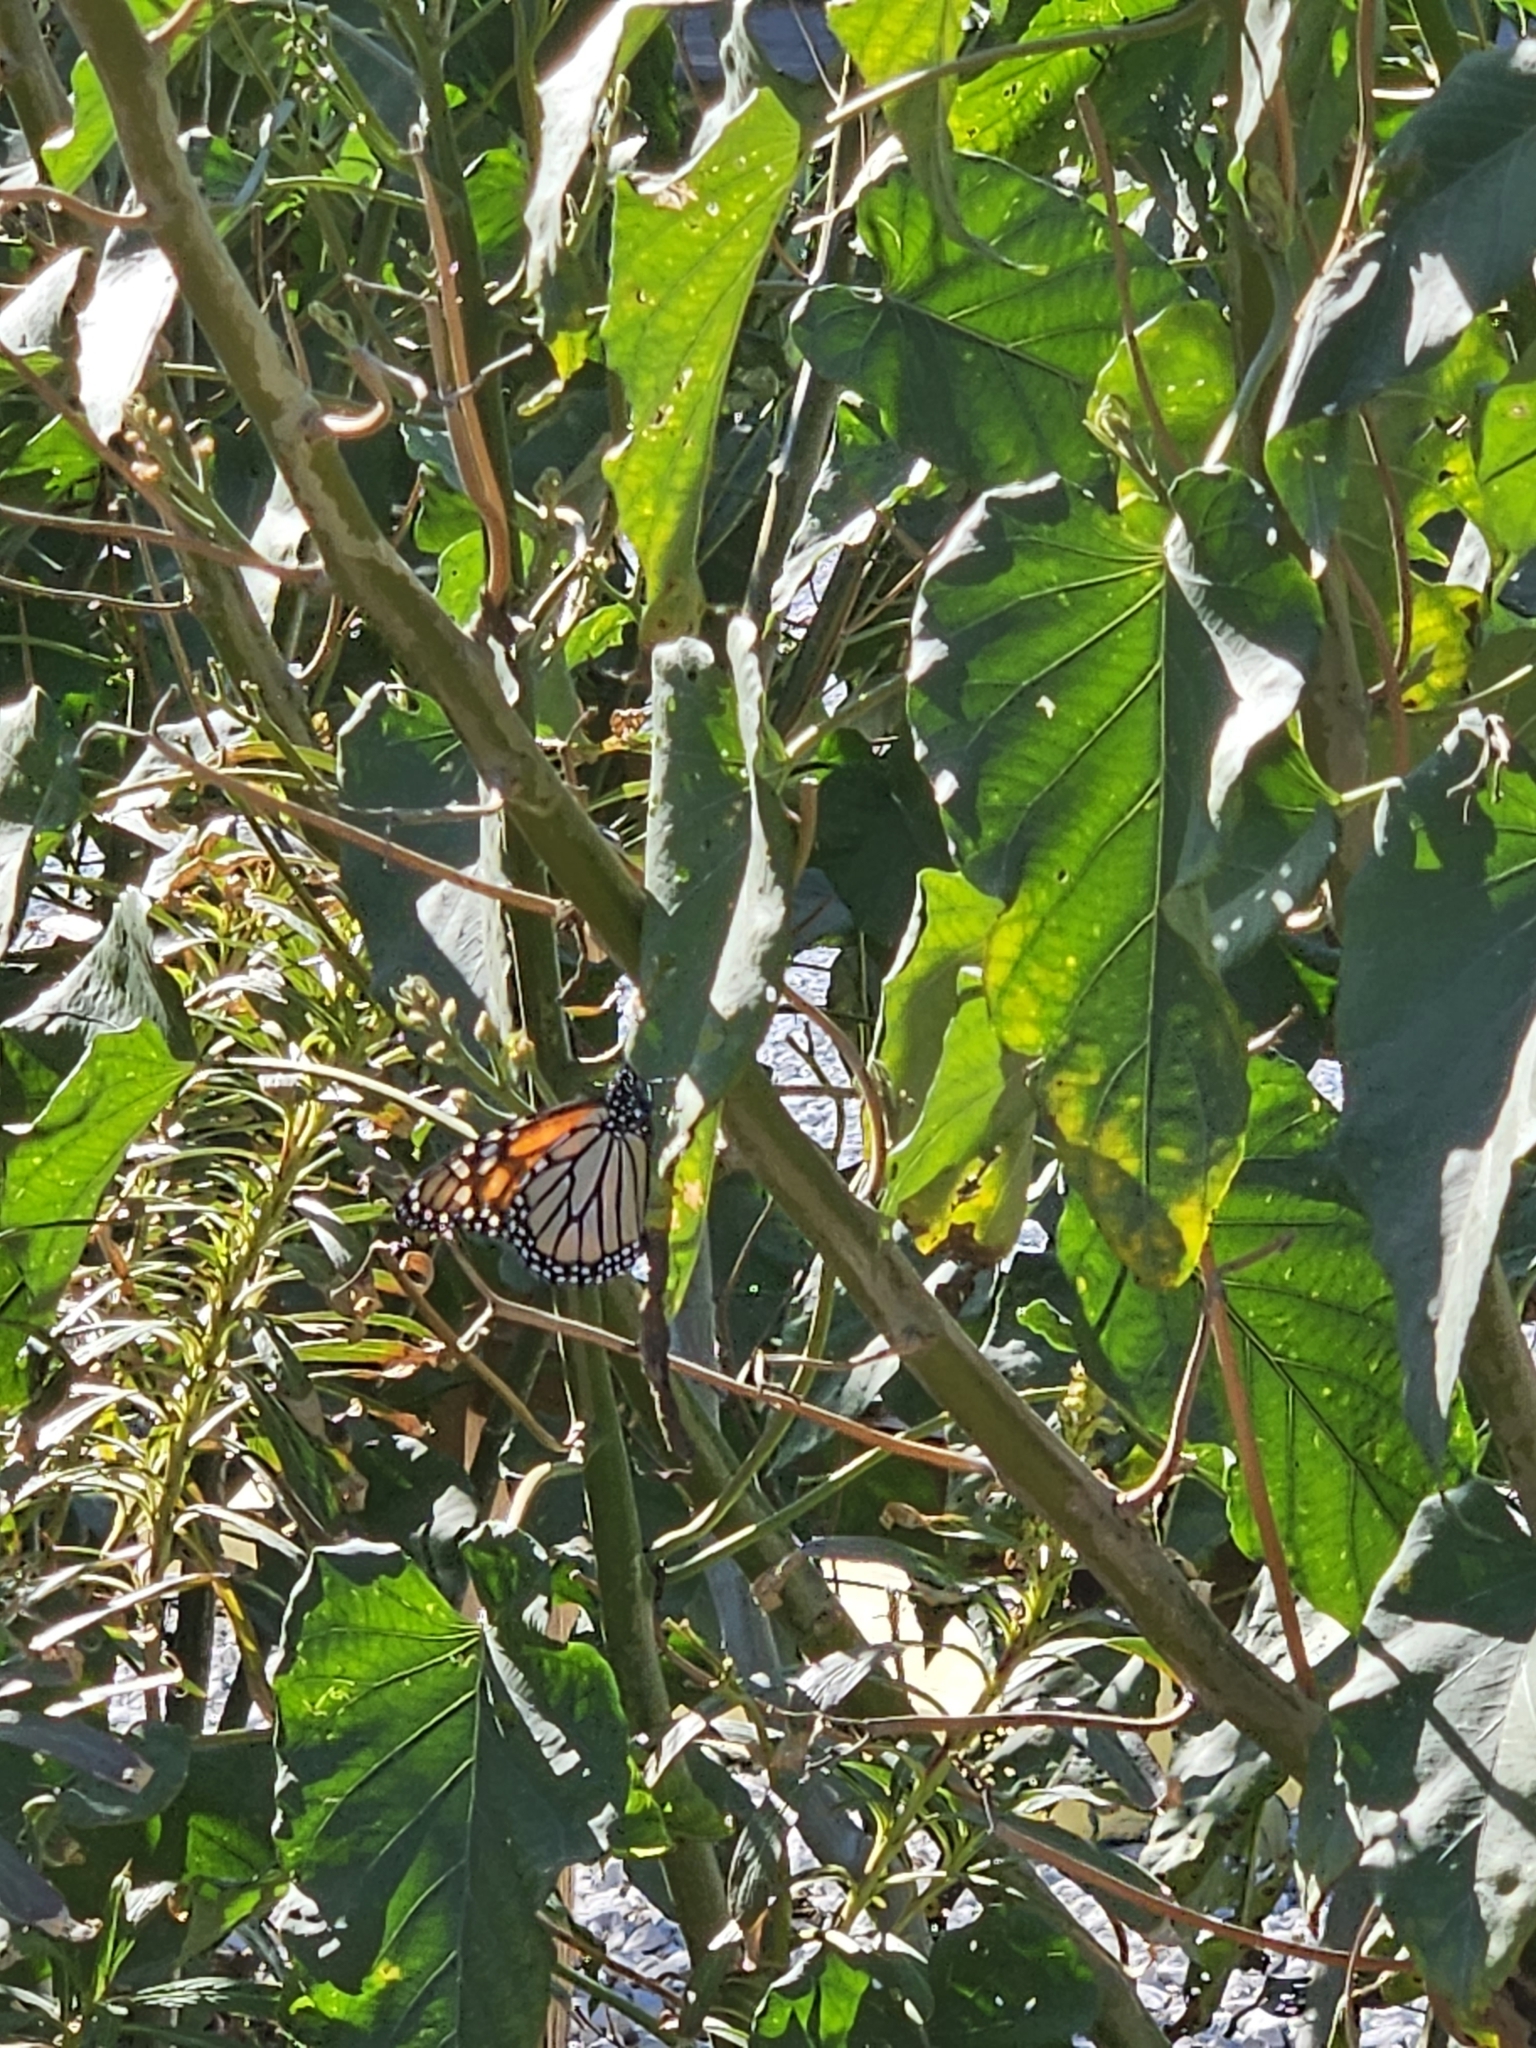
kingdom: Animalia
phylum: Arthropoda
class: Insecta
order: Lepidoptera
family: Nymphalidae
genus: Danaus
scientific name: Danaus plexippus
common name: Monarch
